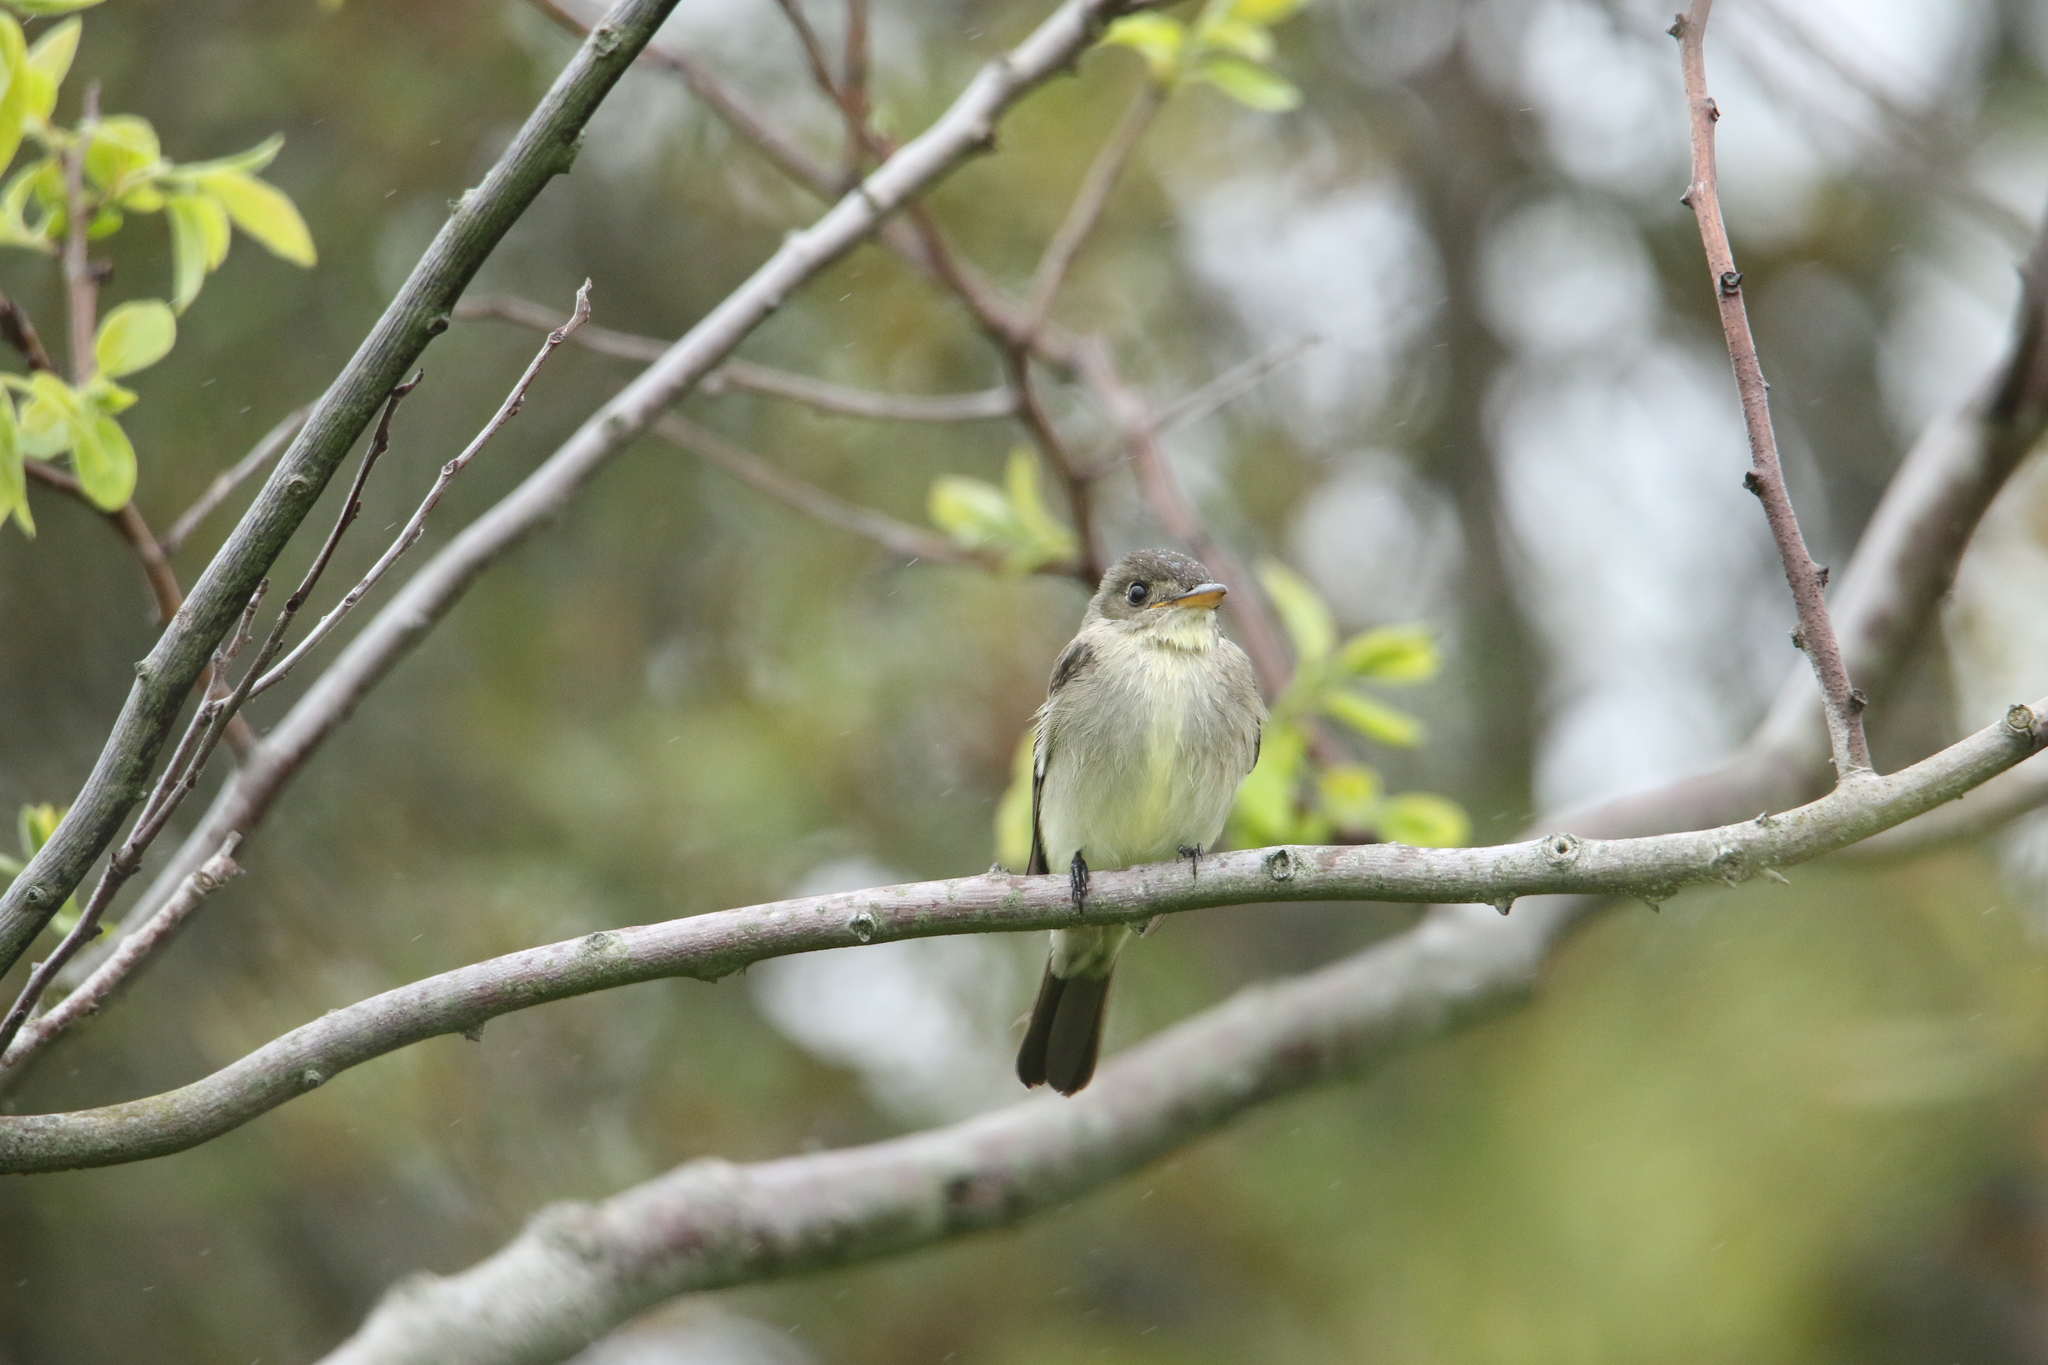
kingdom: Animalia
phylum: Chordata
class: Aves
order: Passeriformes
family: Tyrannidae
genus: Contopus
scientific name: Contopus virens
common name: Eastern wood-pewee
